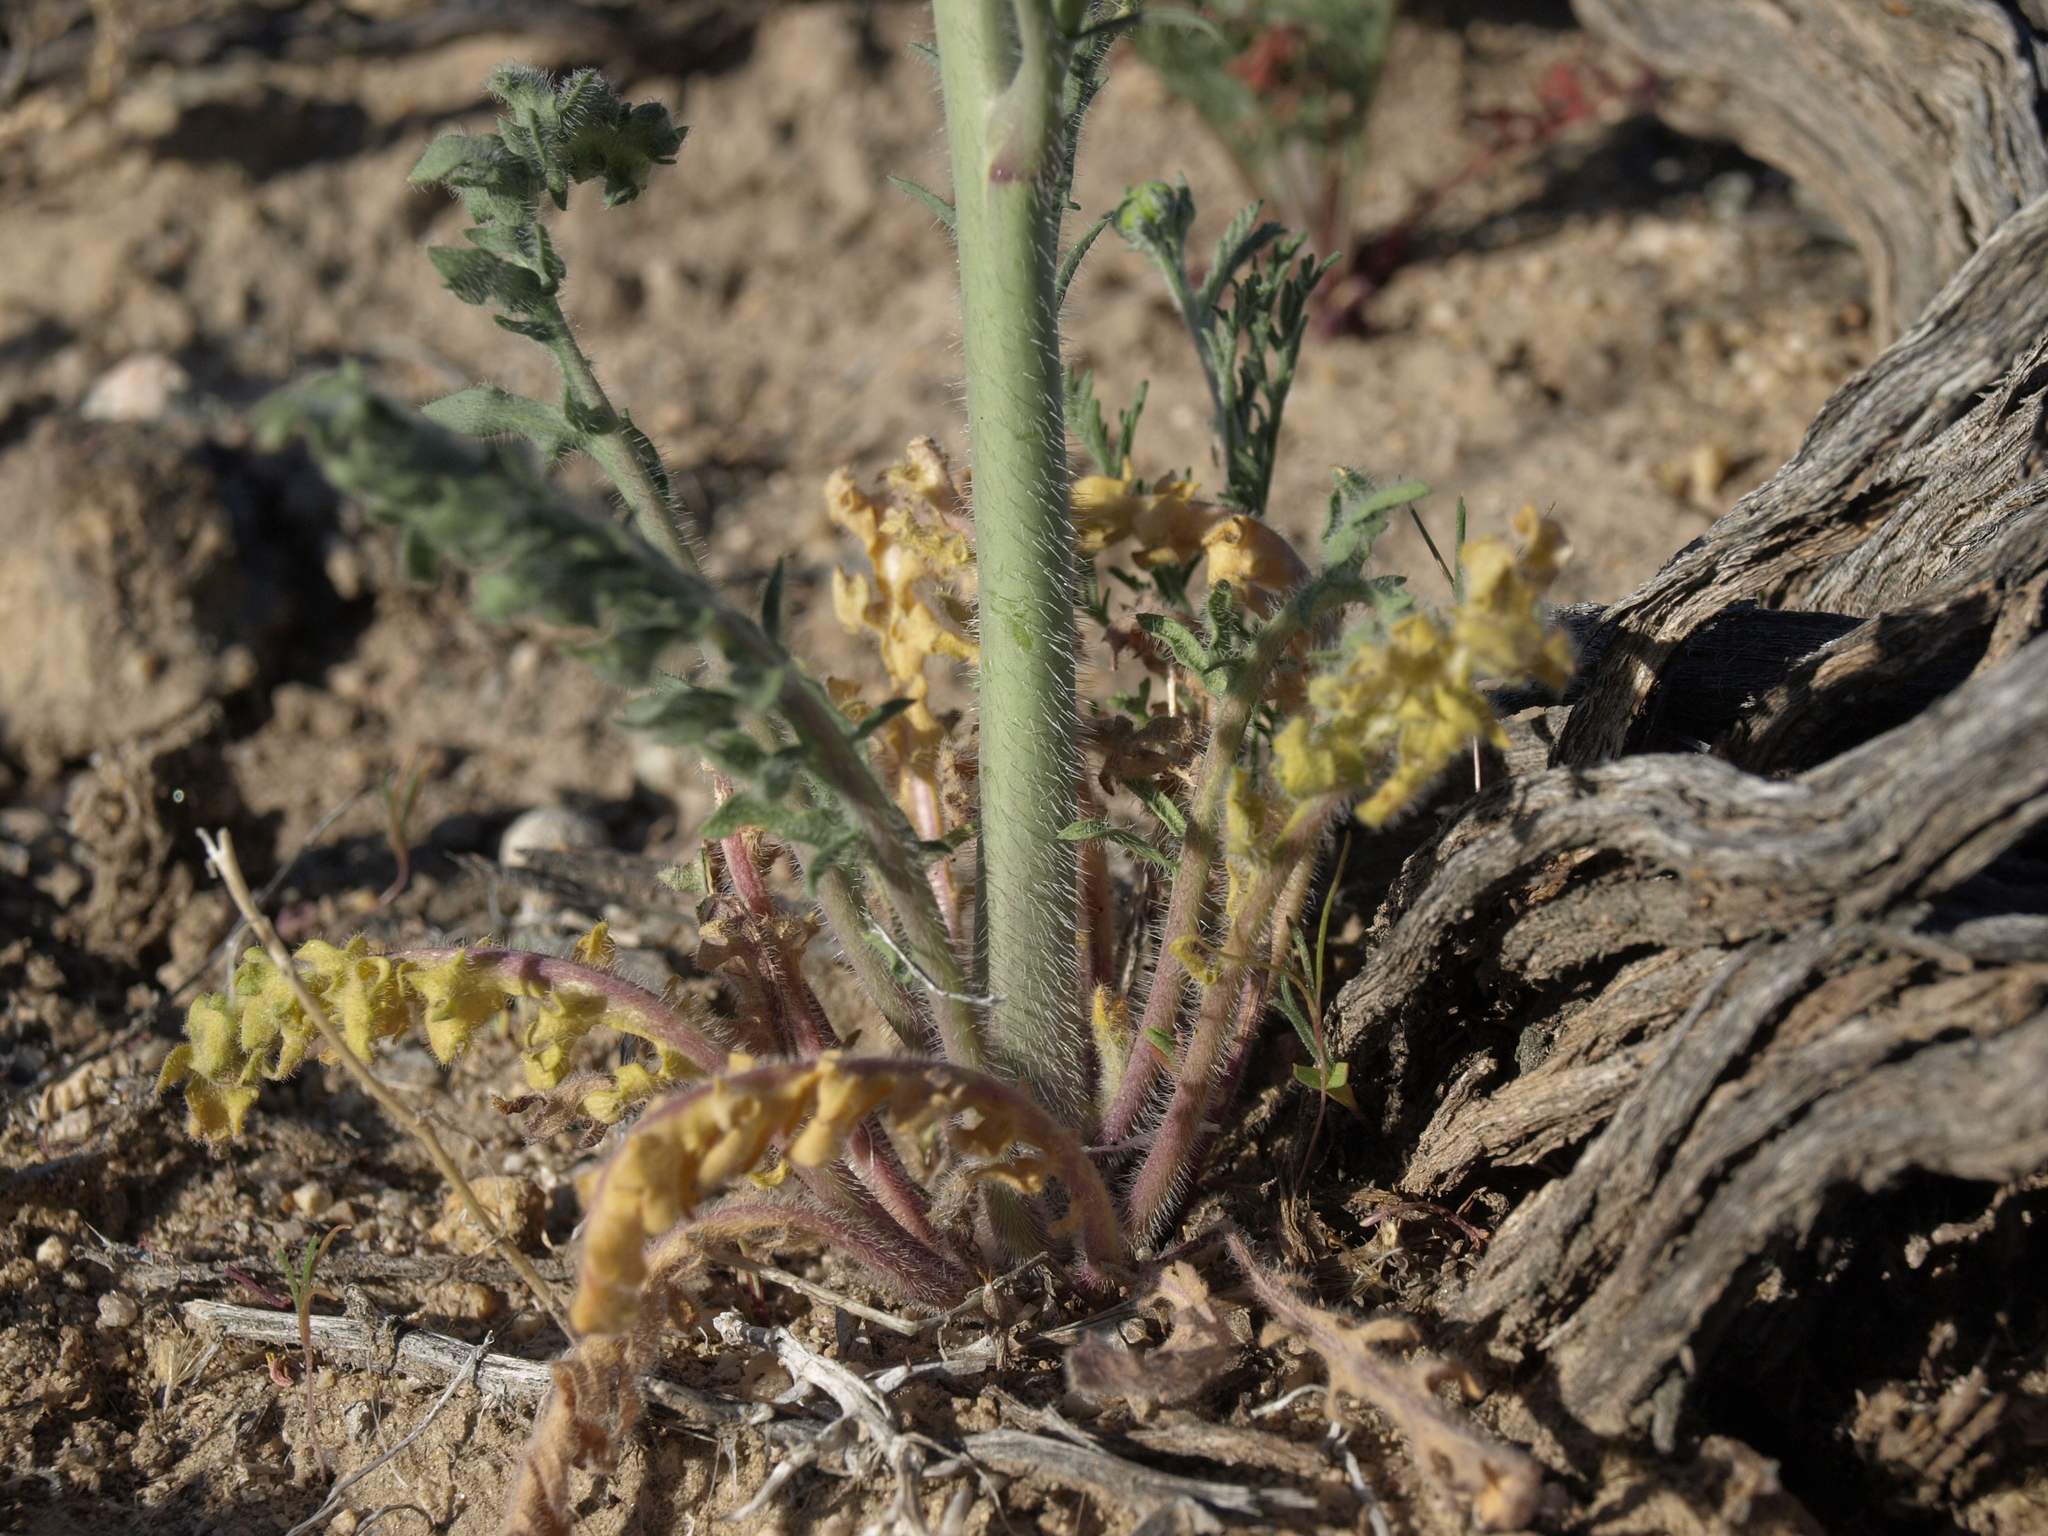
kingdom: Plantae
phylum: Tracheophyta
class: Magnoliopsida
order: Brassicales
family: Brassicaceae
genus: Streptanthus
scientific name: Streptanthus pilosus
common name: Chocolate drops
